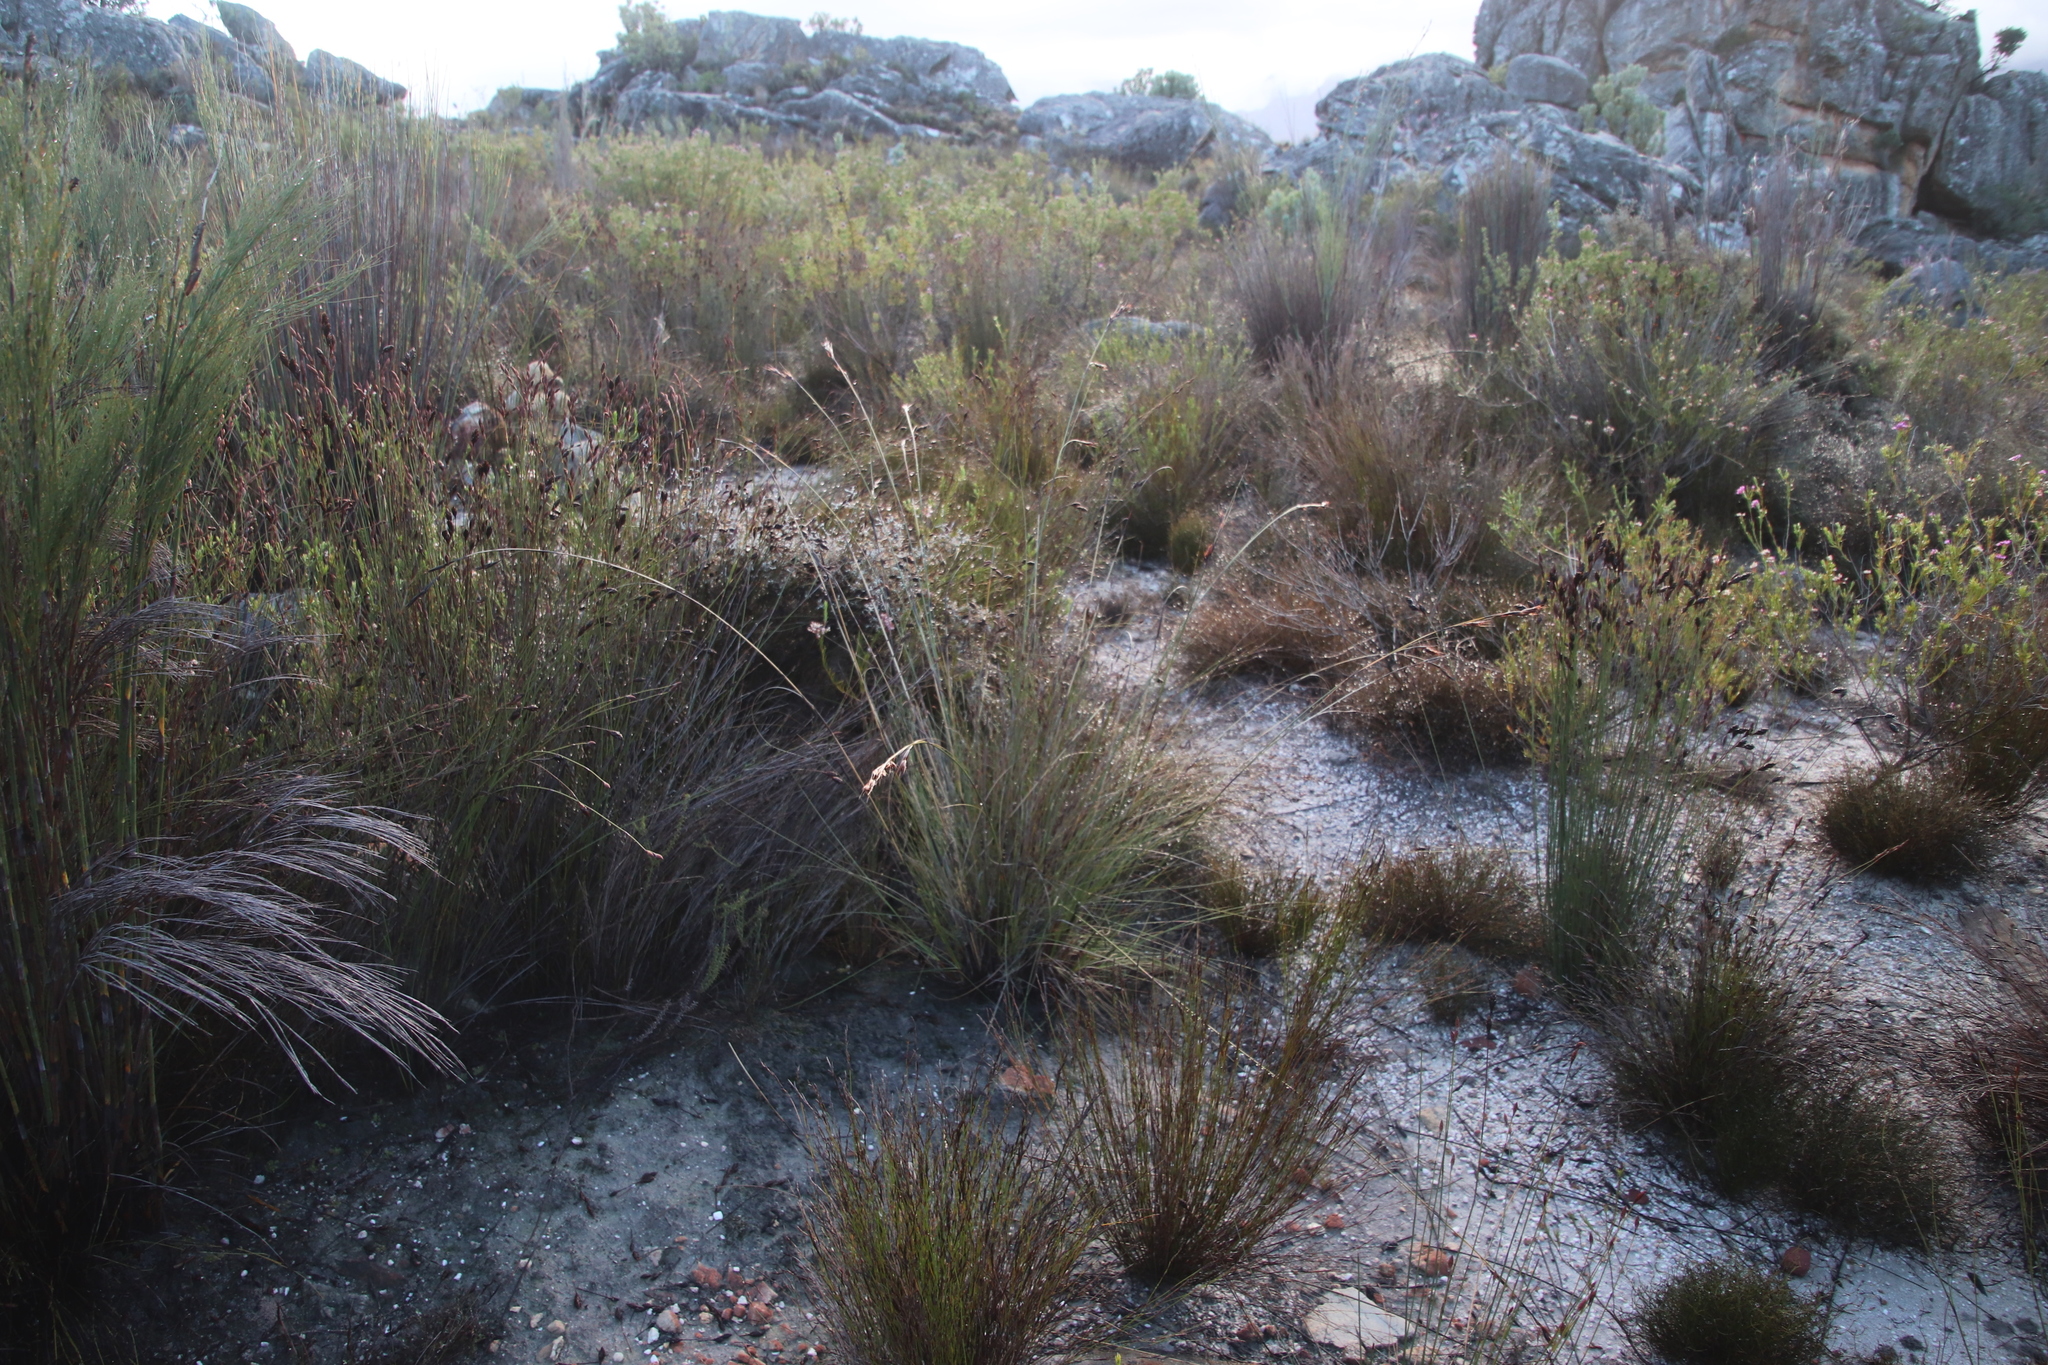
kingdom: Plantae
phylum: Tracheophyta
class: Liliopsida
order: Poales
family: Cyperaceae
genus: Tetraria
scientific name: Tetraria ustulata
